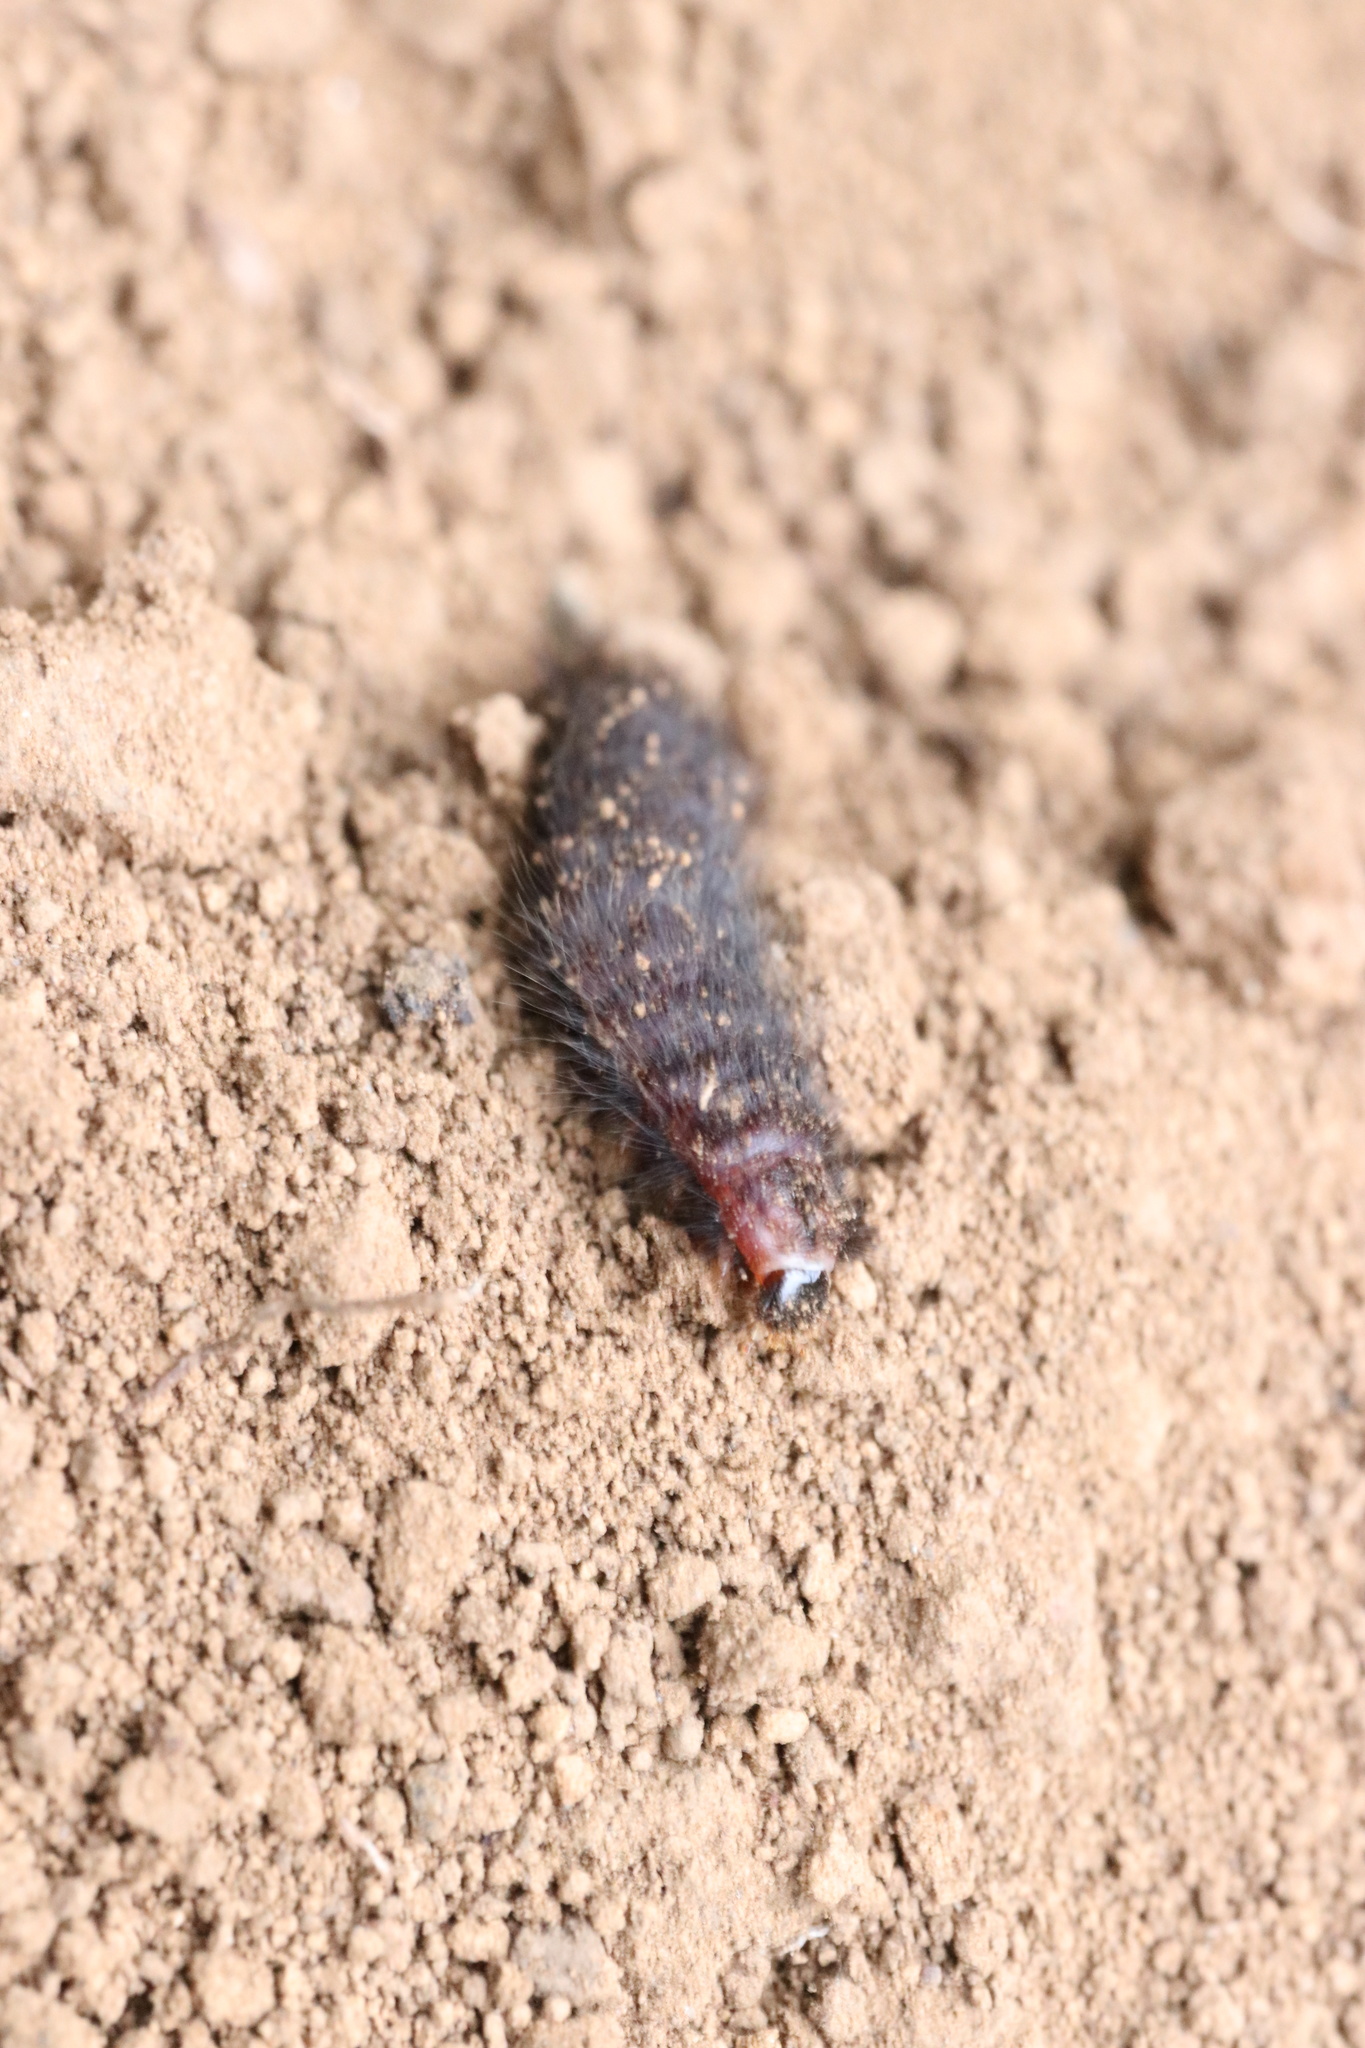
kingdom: Animalia
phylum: Arthropoda
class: Insecta
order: Coleoptera
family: Melyridae
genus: Astylus
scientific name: Astylus
